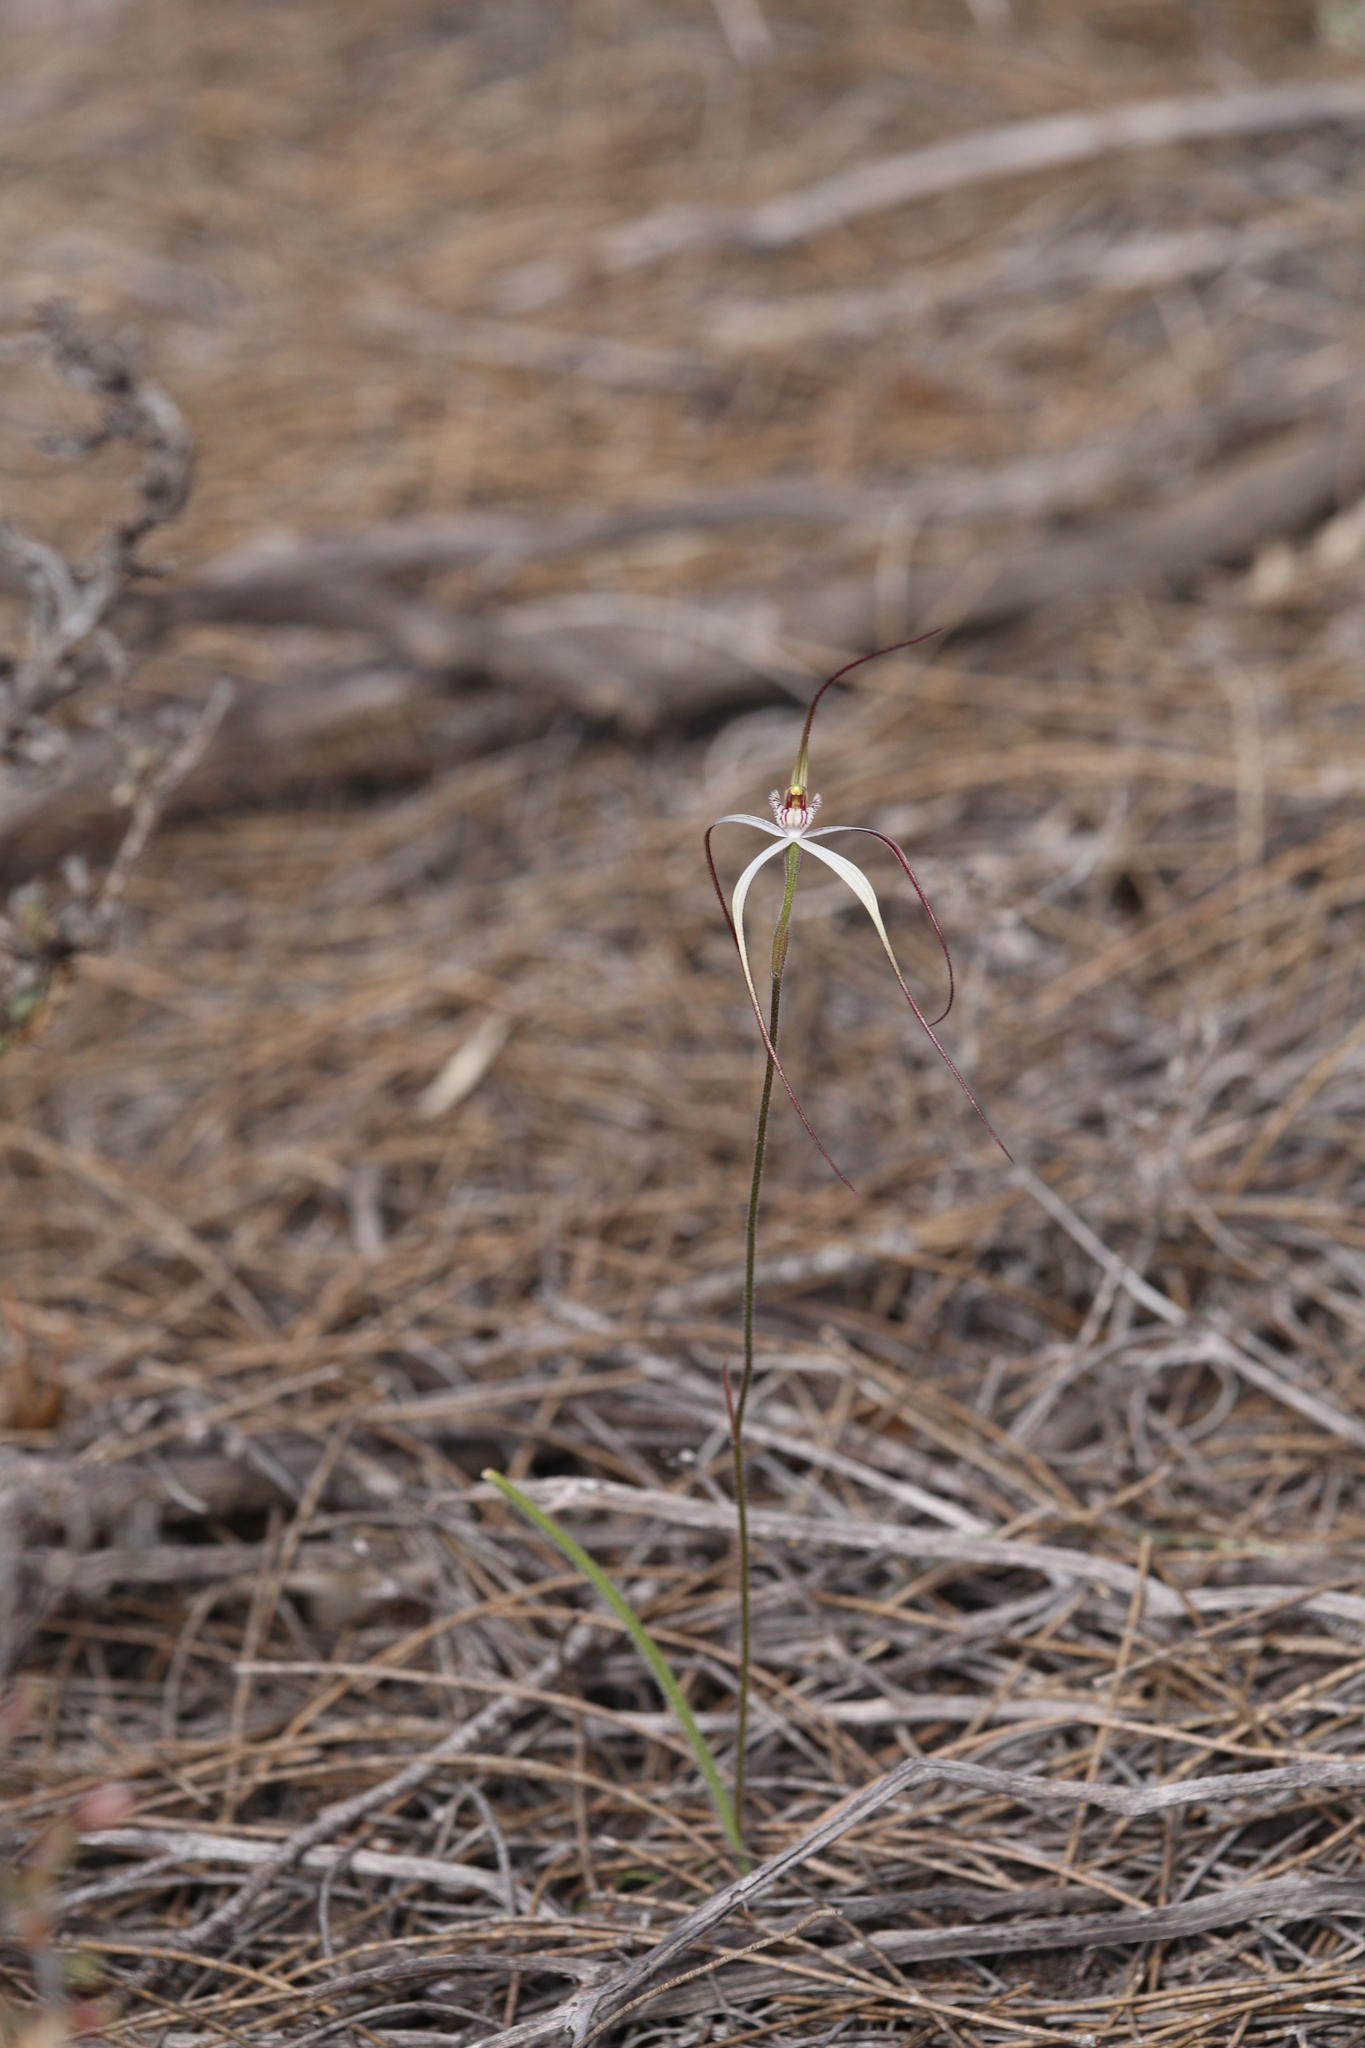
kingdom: Plantae
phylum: Tracheophyta
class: Liliopsida
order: Asparagales
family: Orchidaceae
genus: Caladenia
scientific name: Caladenia exilis
